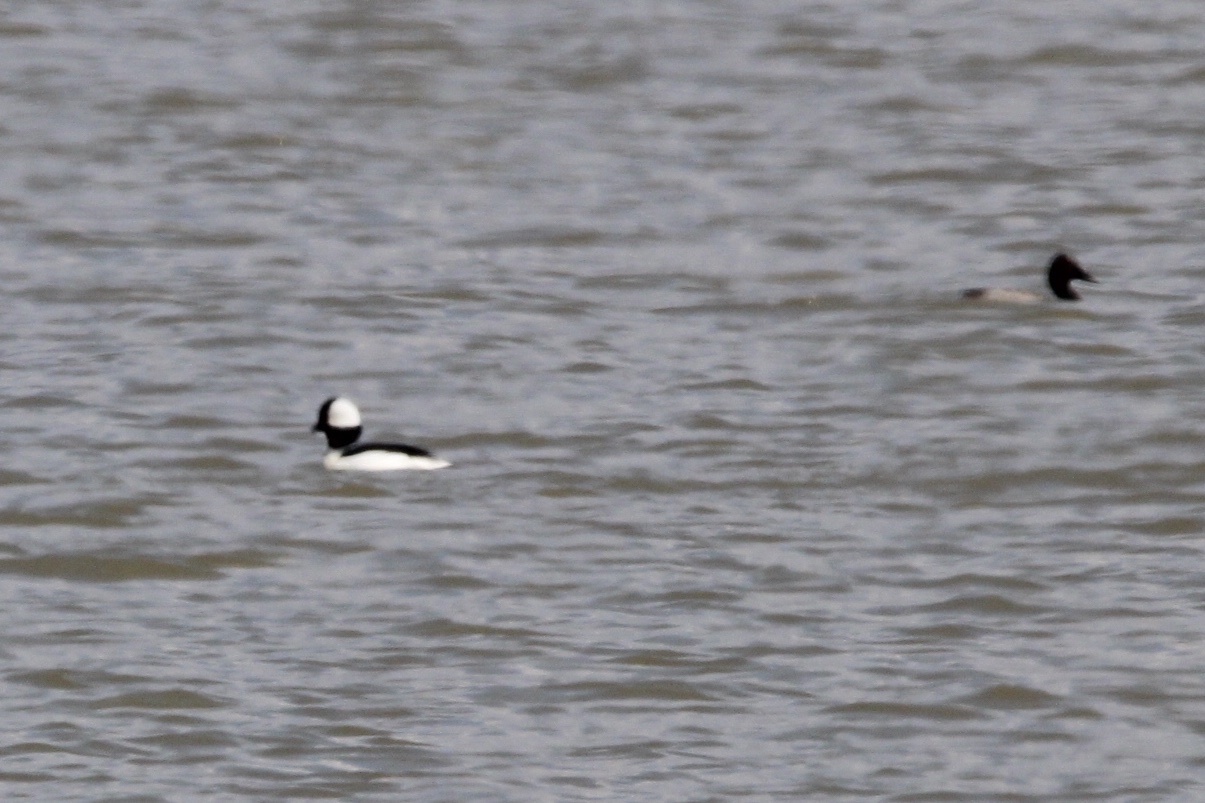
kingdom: Animalia
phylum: Chordata
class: Aves
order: Anseriformes
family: Anatidae
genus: Aythya
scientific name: Aythya valisineria
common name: Canvasback
